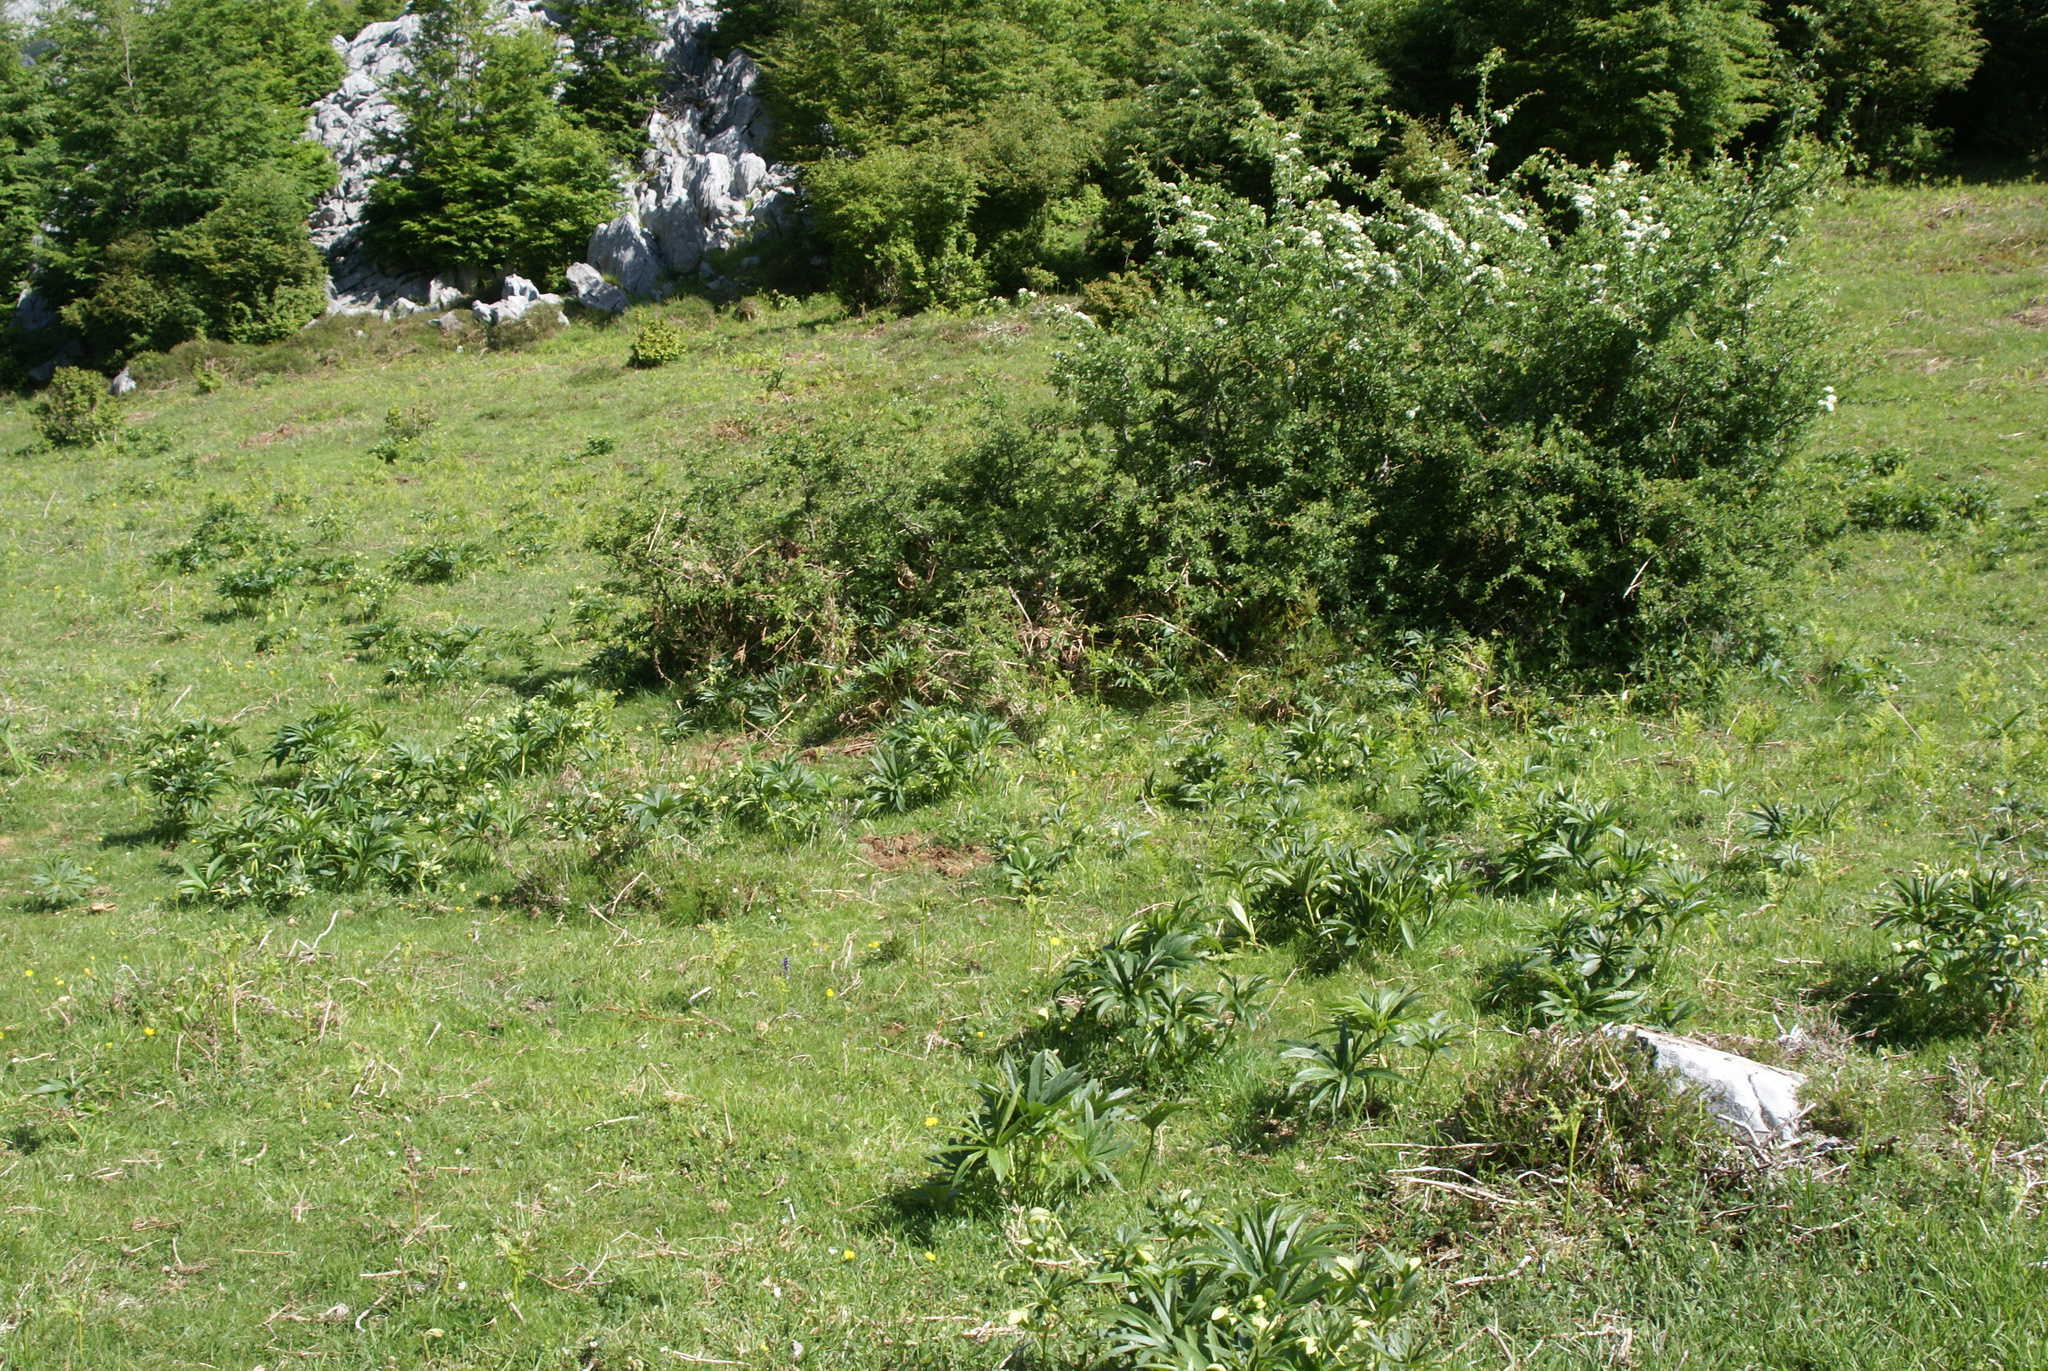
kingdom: Plantae
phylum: Tracheophyta
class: Magnoliopsida
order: Ranunculales
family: Ranunculaceae
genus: Helleborus
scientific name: Helleborus viridis
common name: Green hellebore
